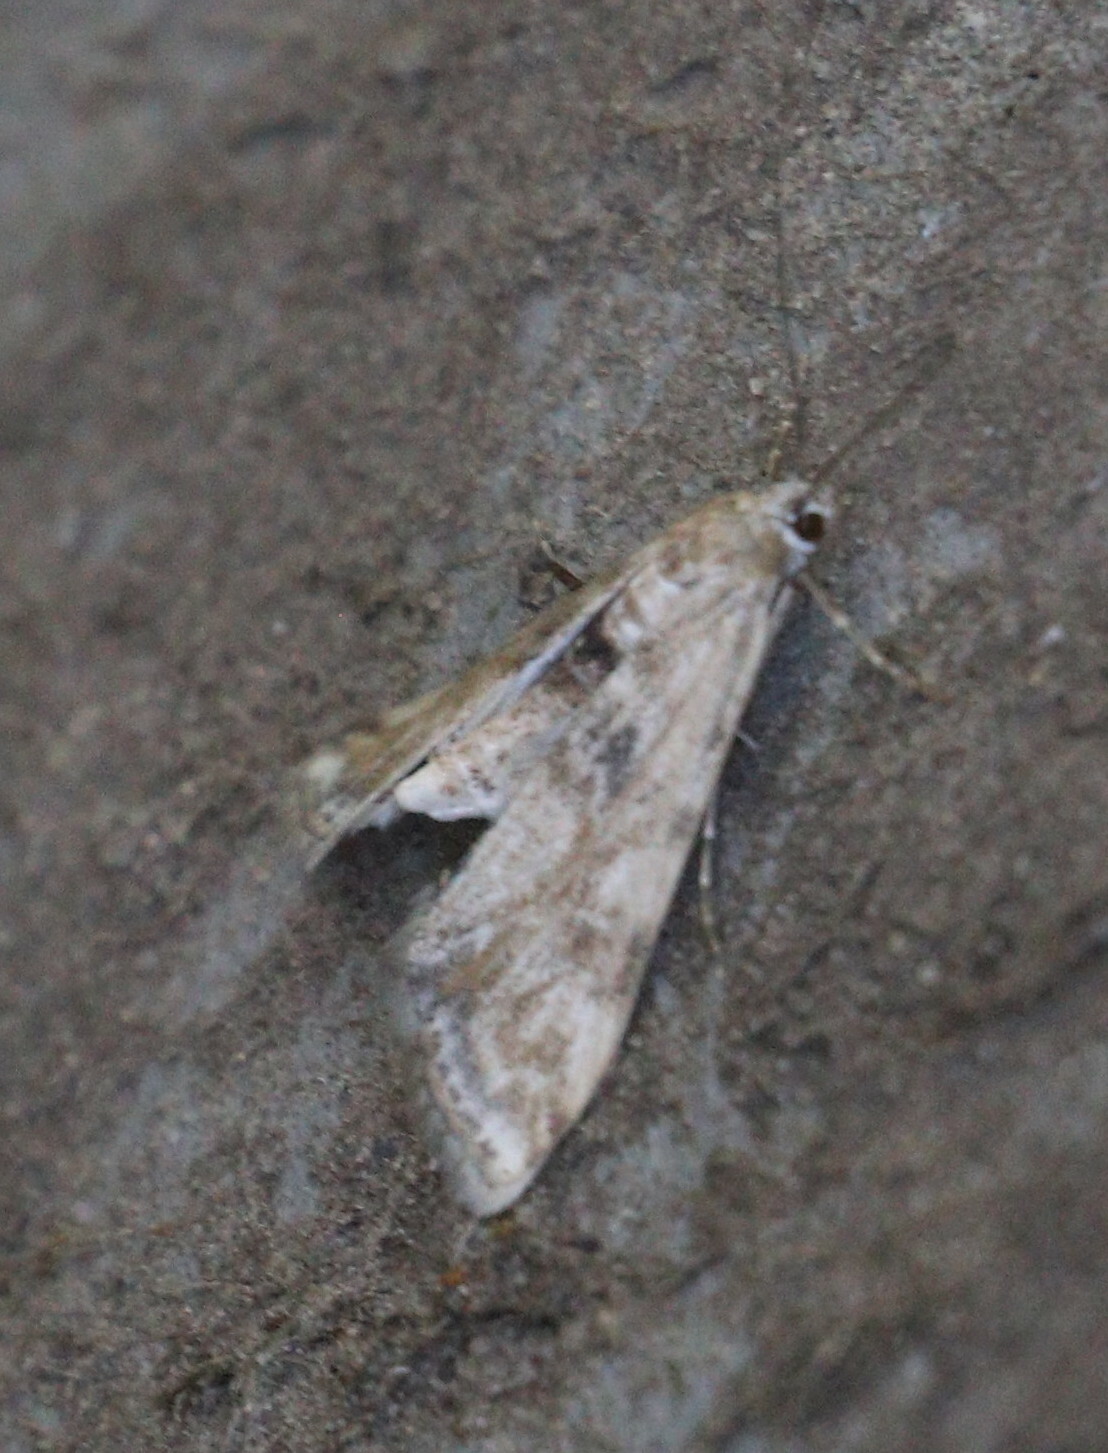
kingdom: Animalia
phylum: Arthropoda
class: Insecta
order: Lepidoptera
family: Crambidae
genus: Cataclysta
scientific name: Cataclysta lemnata
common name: Small china-mark
